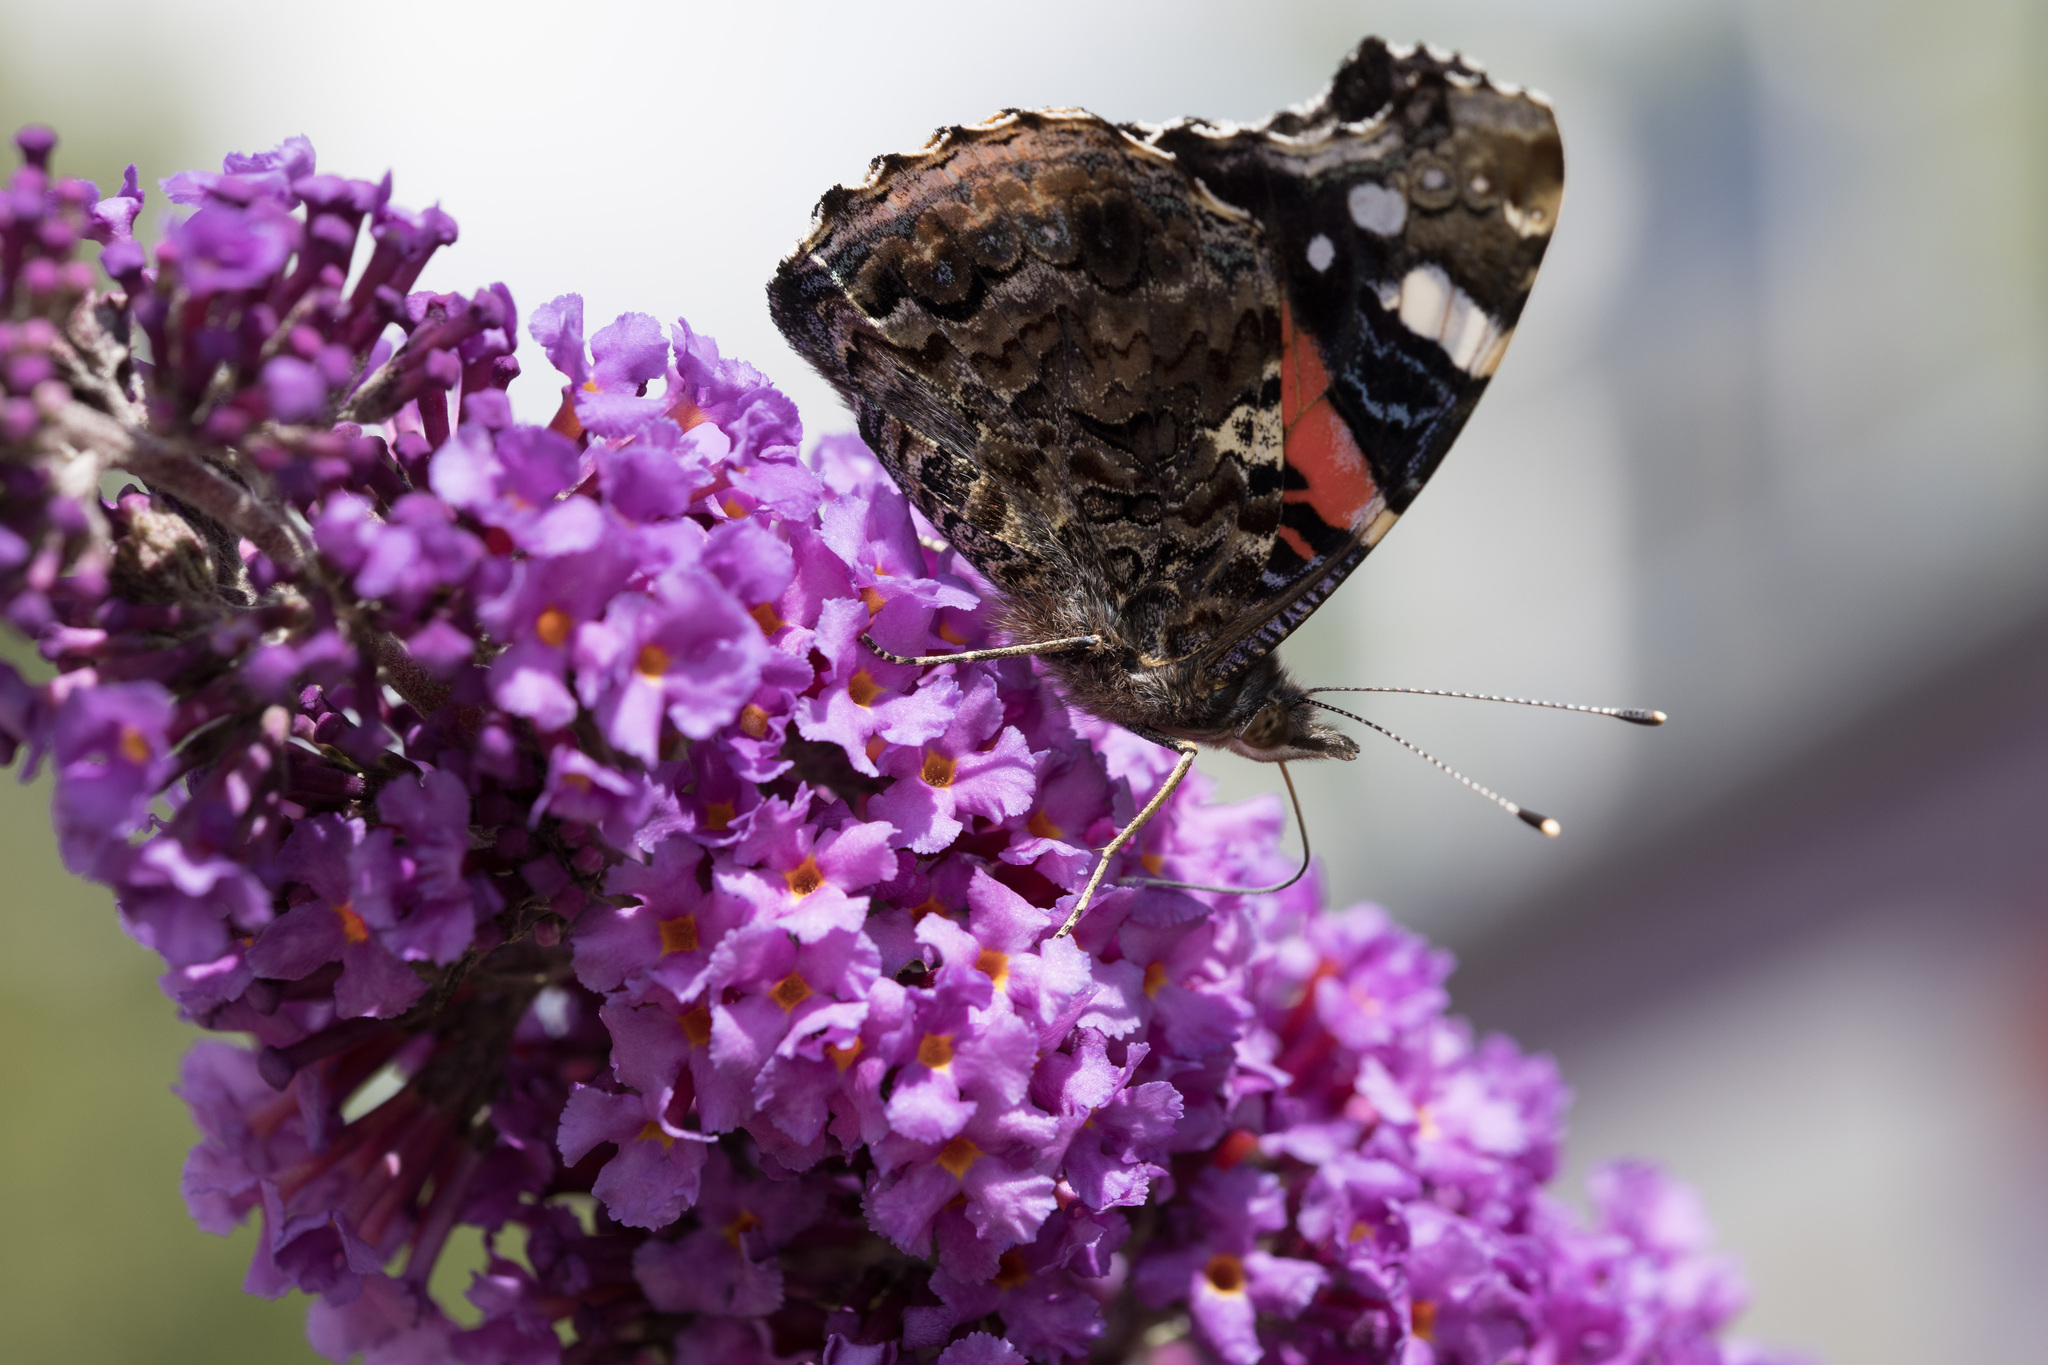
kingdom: Animalia
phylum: Arthropoda
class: Insecta
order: Lepidoptera
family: Nymphalidae
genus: Vanessa
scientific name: Vanessa atalanta
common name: Red admiral
